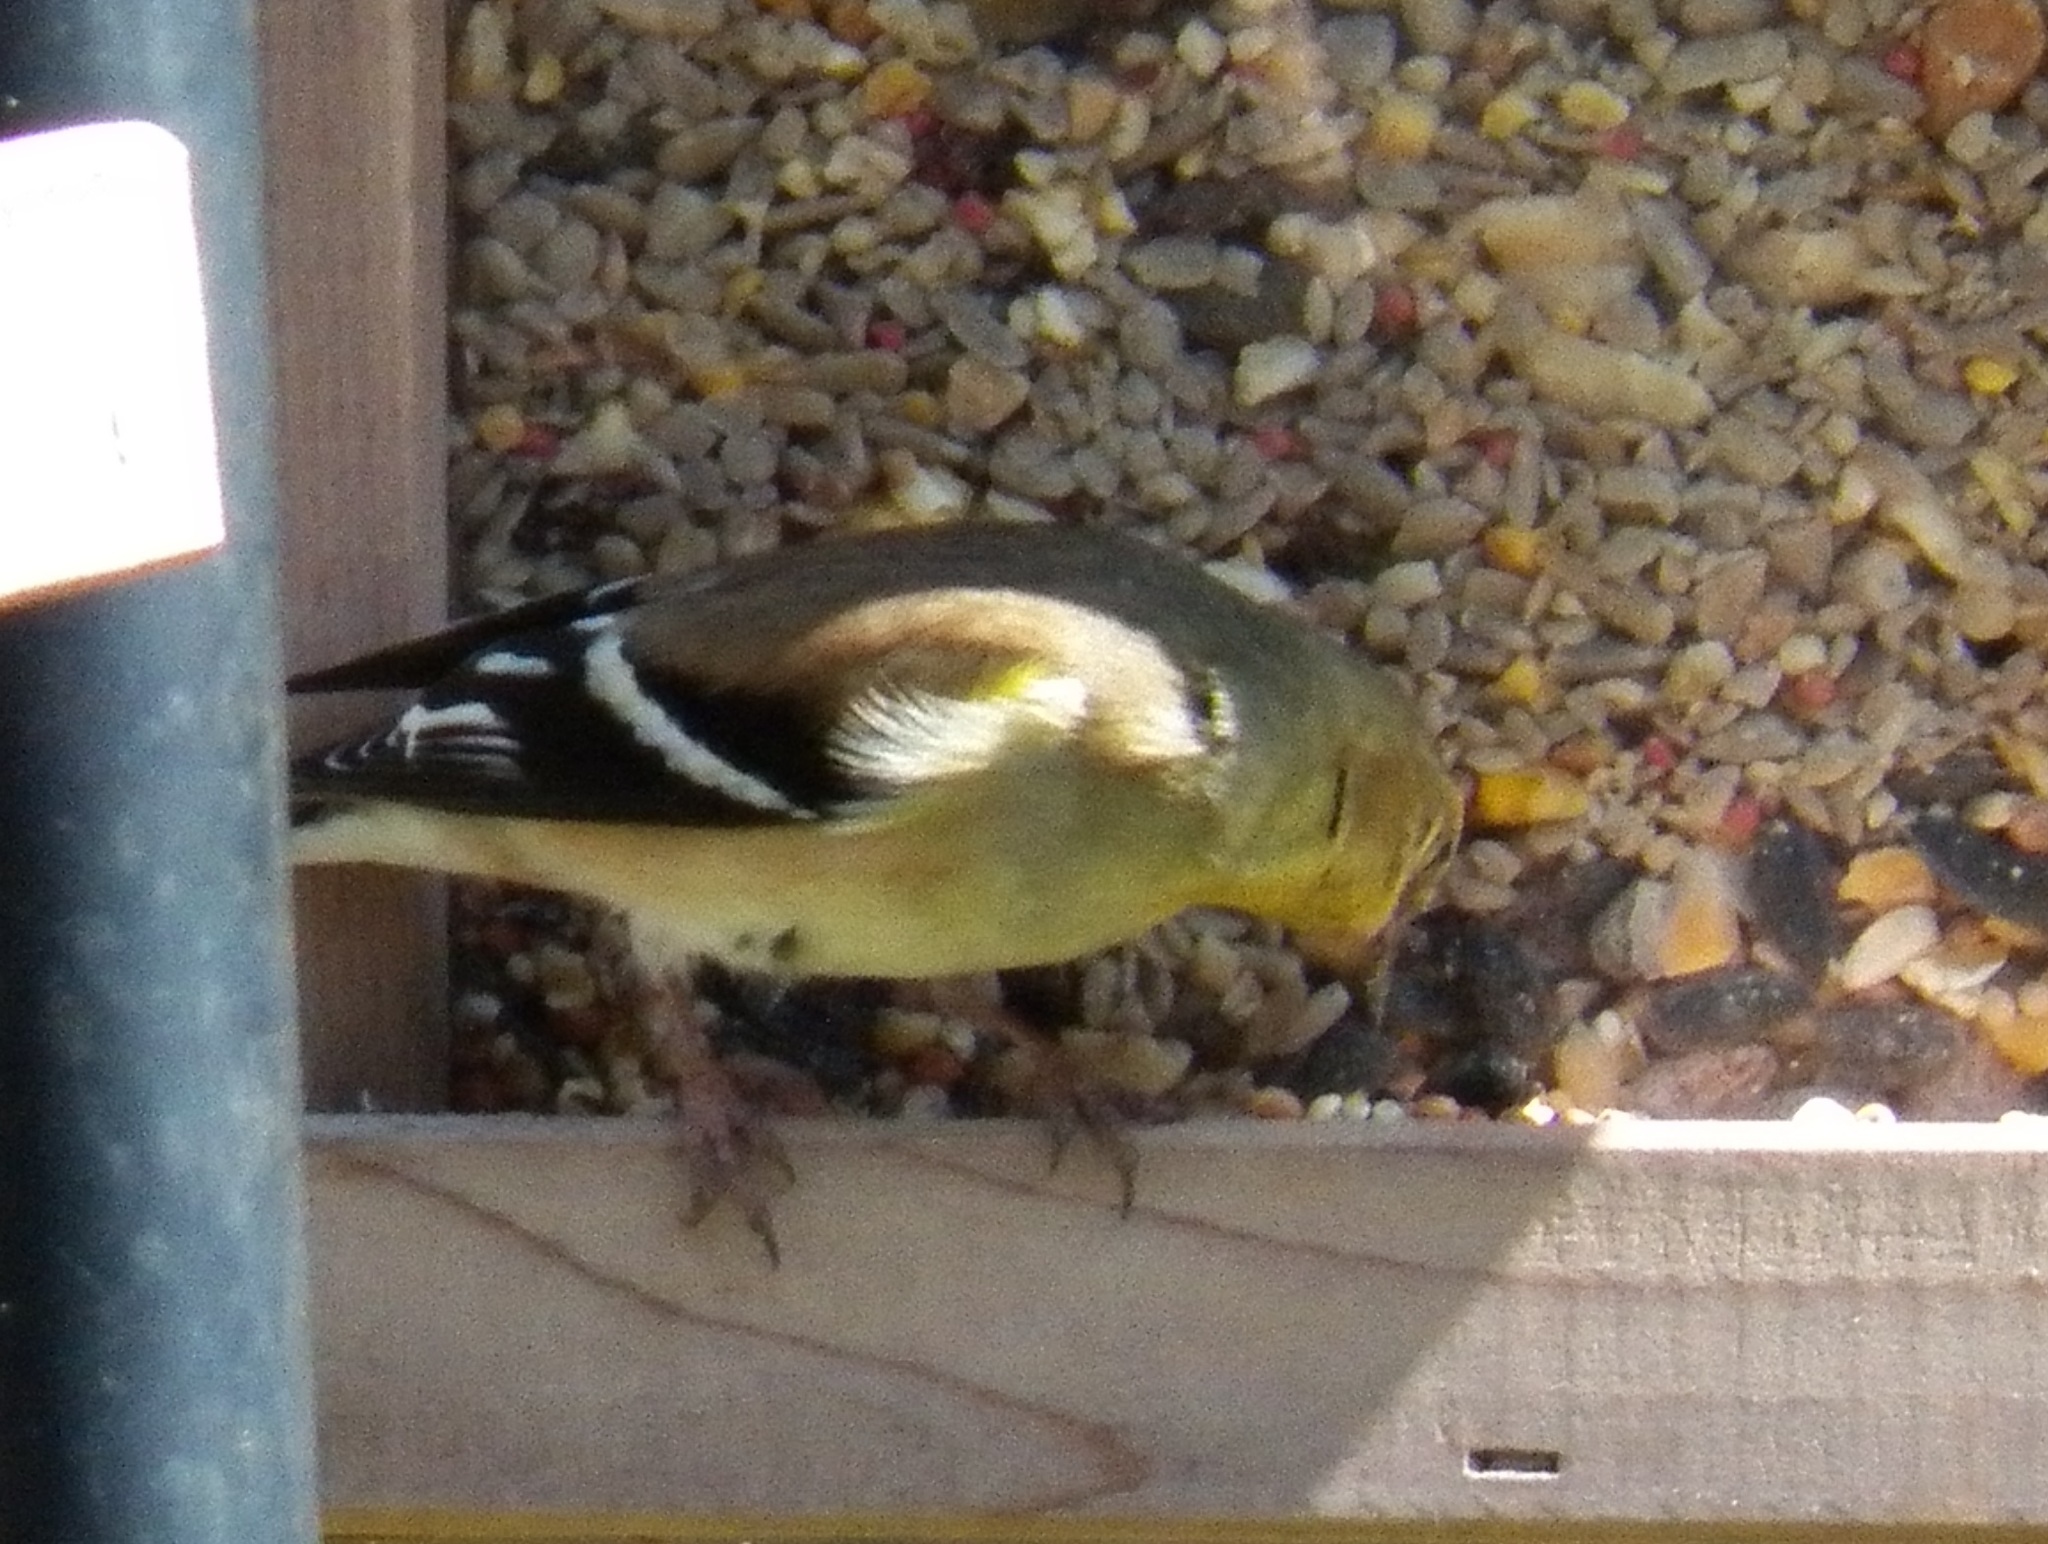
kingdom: Animalia
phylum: Chordata
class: Aves
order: Passeriformes
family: Fringillidae
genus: Spinus
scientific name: Spinus tristis
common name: American goldfinch
